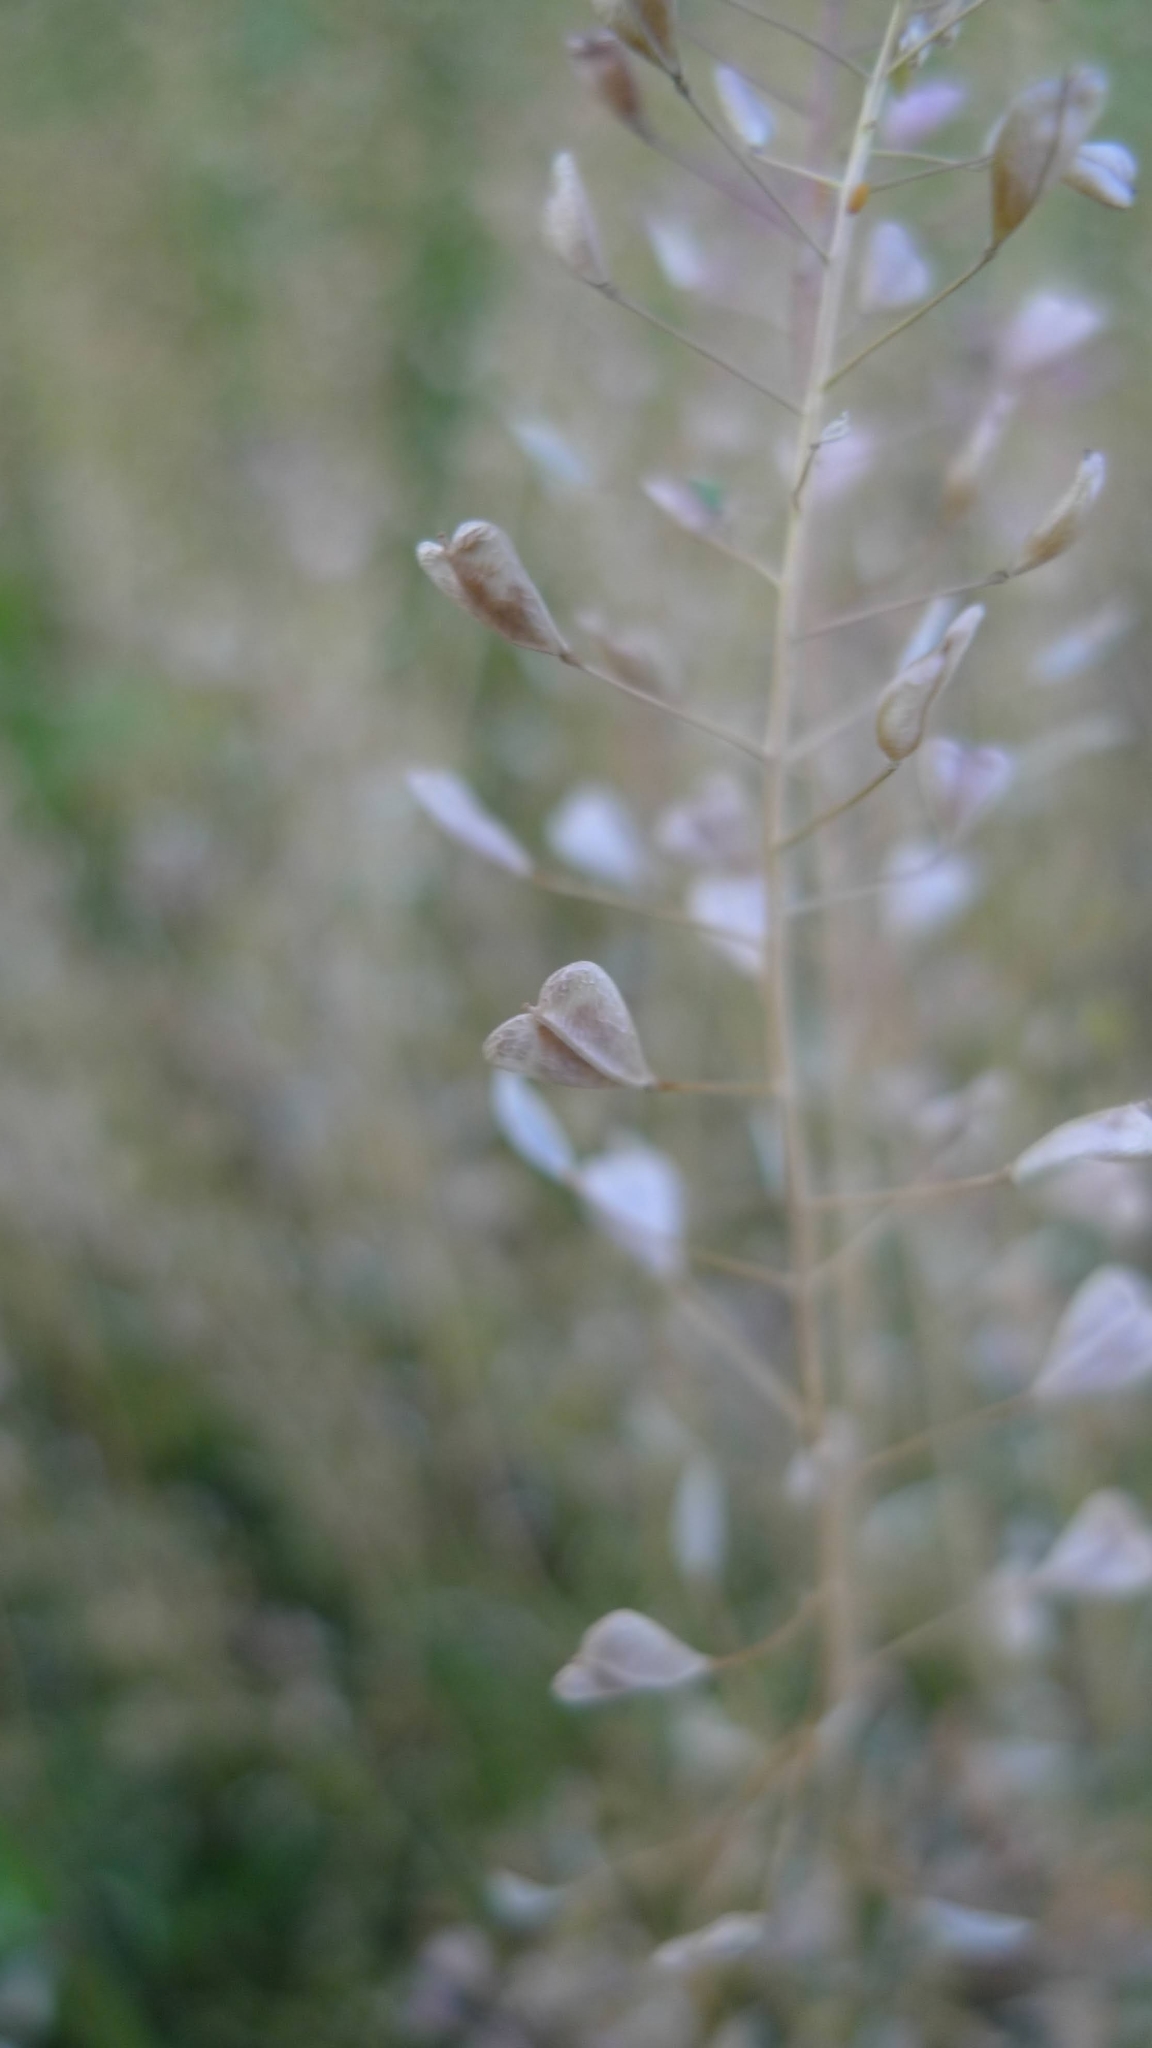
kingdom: Plantae
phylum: Tracheophyta
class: Magnoliopsida
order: Brassicales
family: Brassicaceae
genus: Capsella
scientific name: Capsella bursa-pastoris
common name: Shepherd's purse
